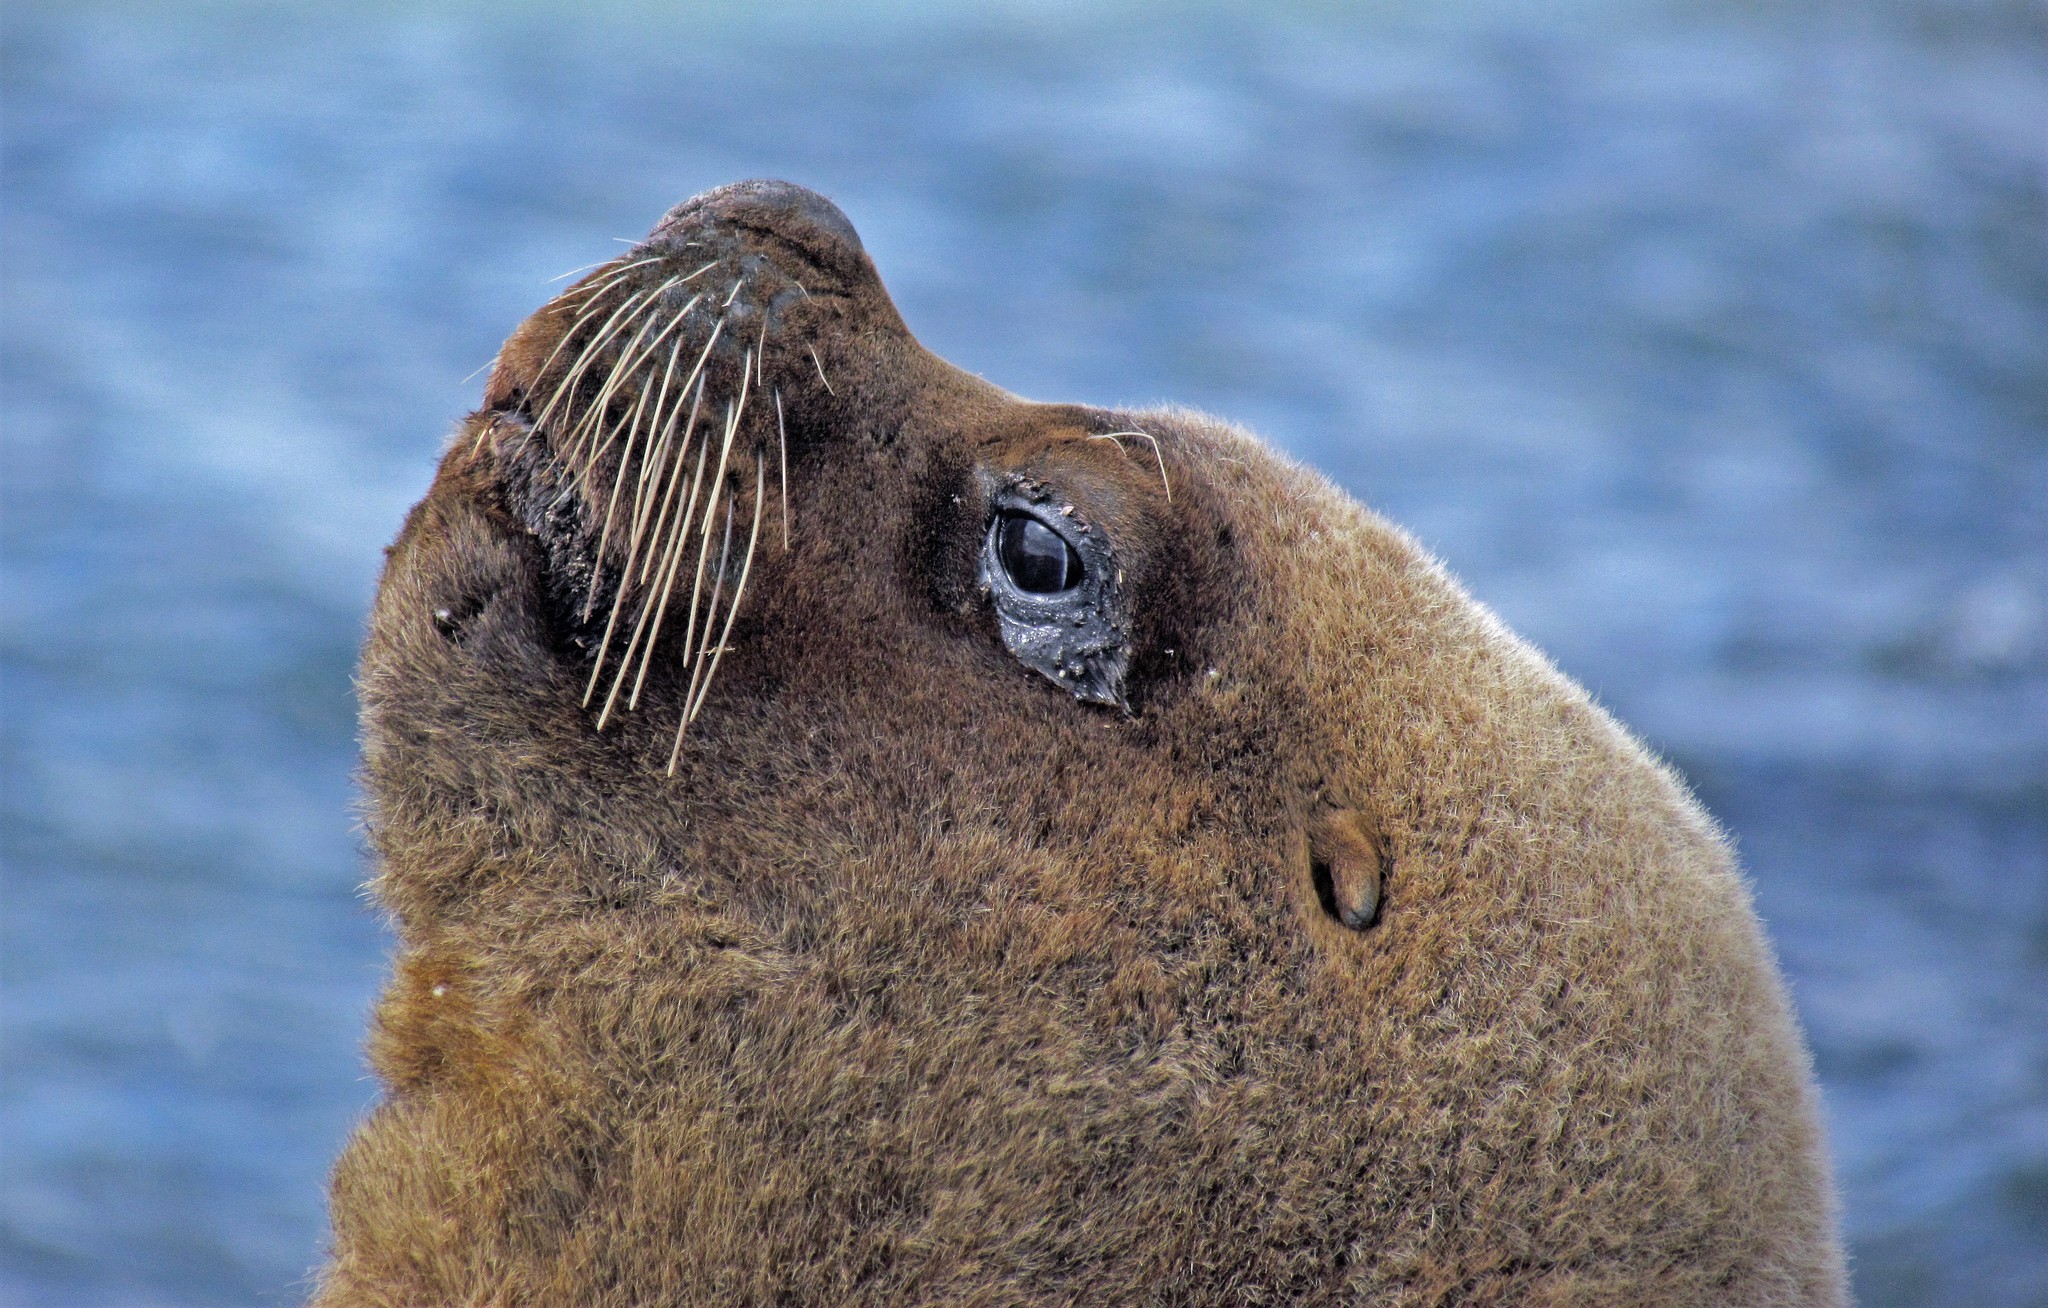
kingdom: Animalia
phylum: Chordata
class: Mammalia
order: Carnivora
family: Otariidae
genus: Otaria
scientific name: Otaria byronia
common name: South american sea lion
